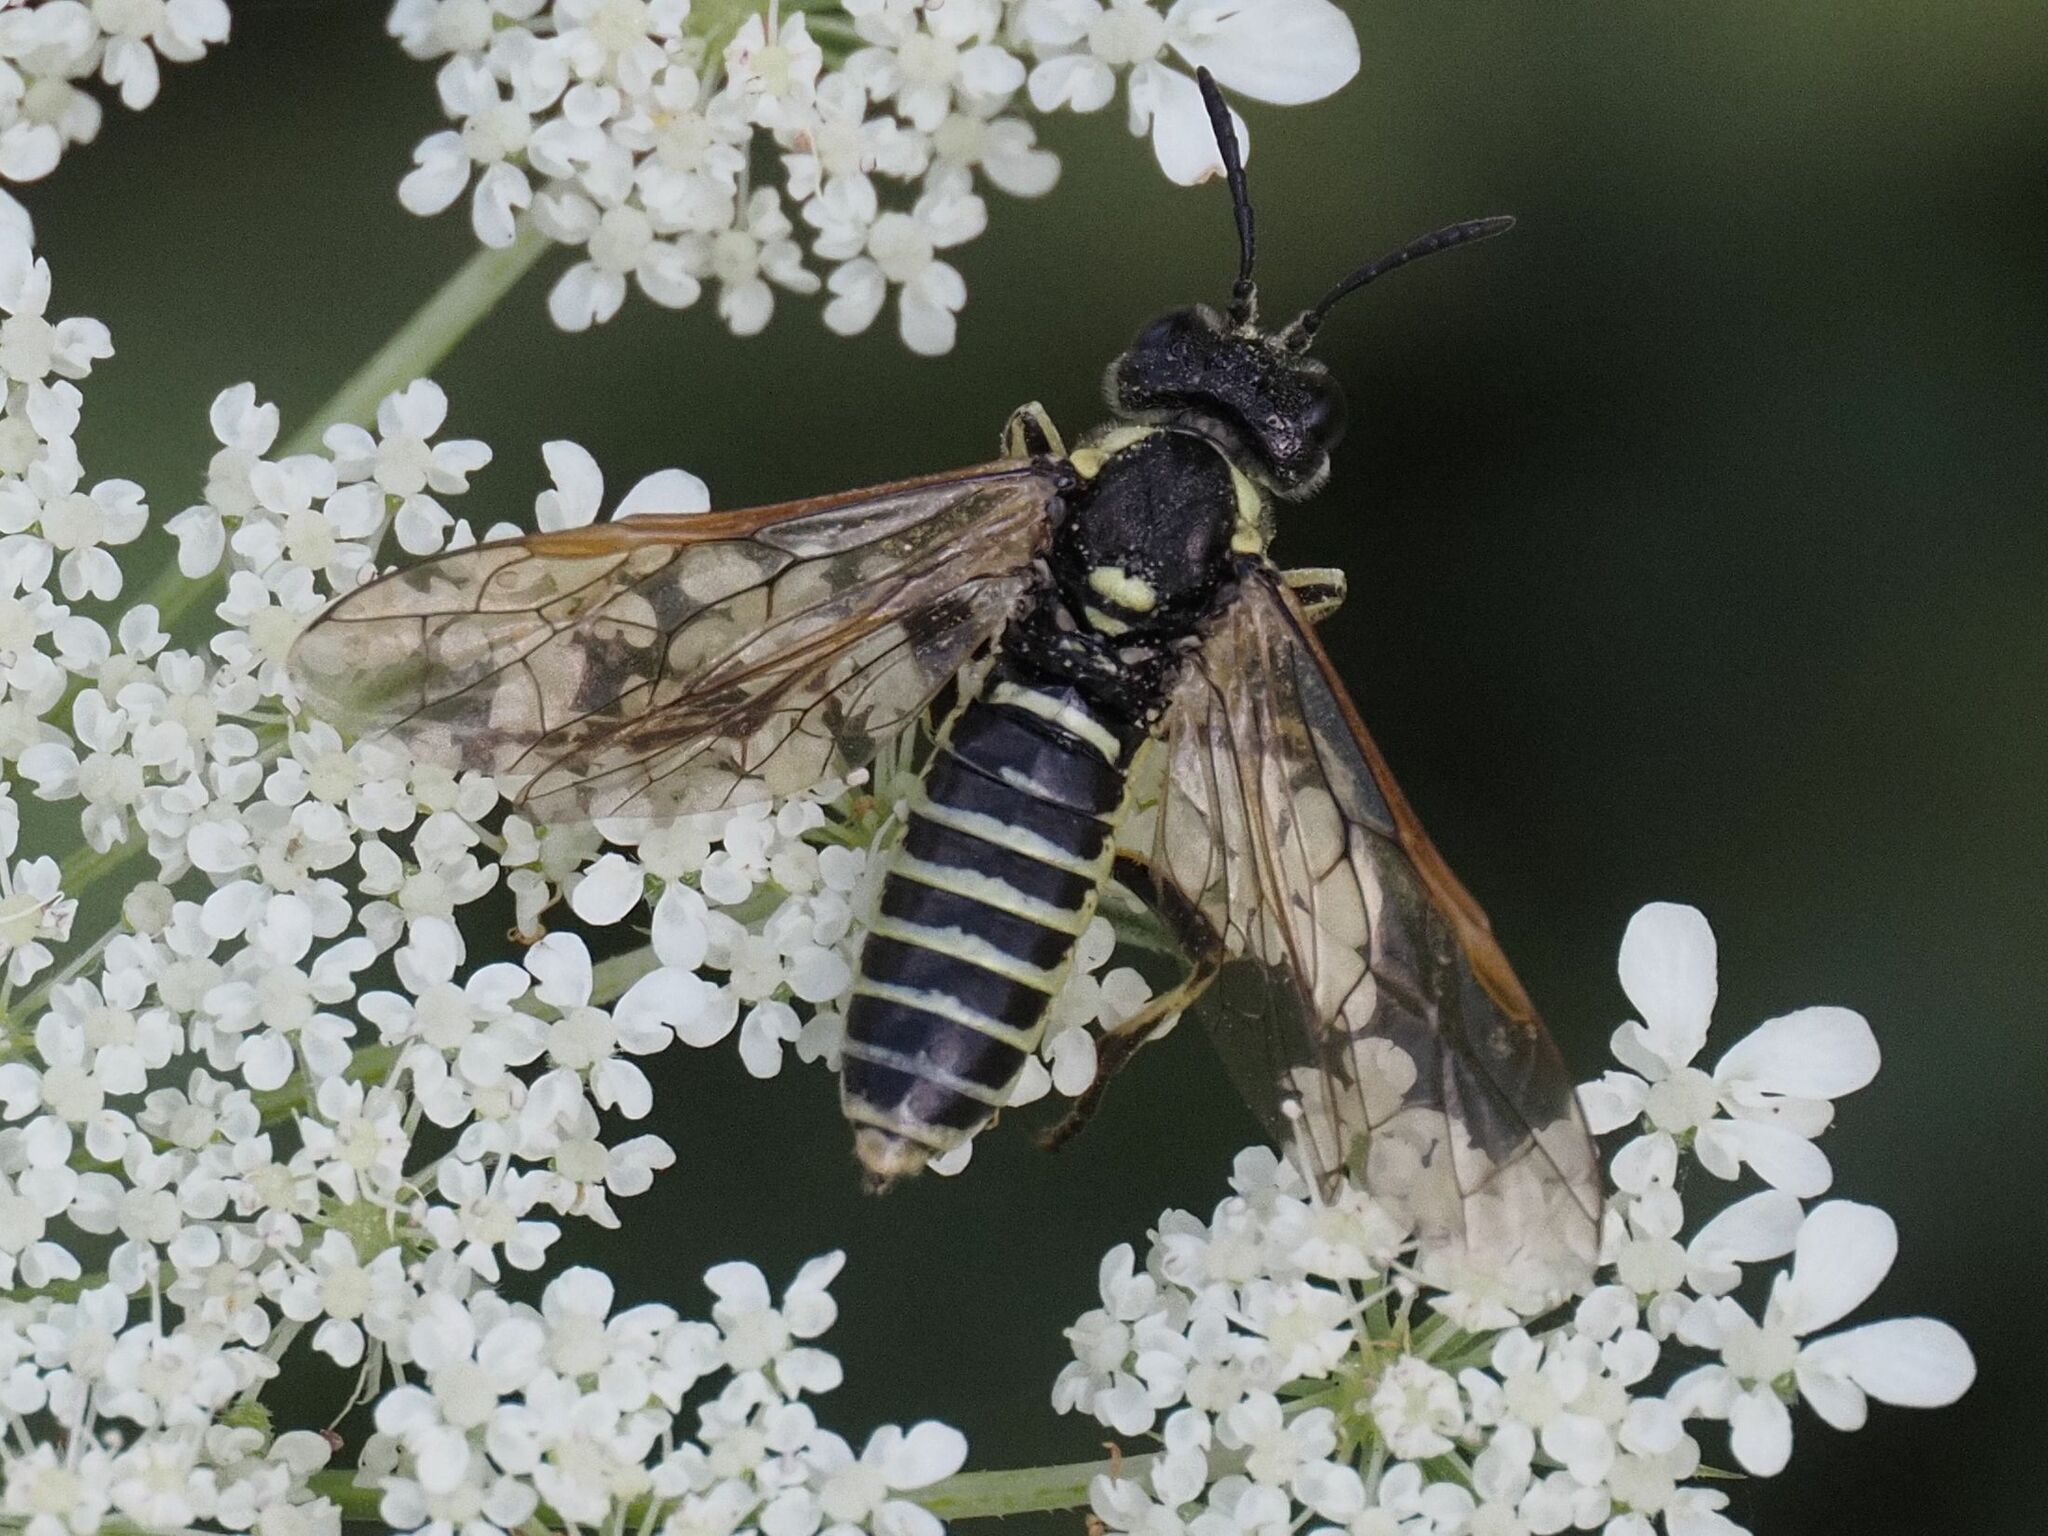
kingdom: Animalia
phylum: Arthropoda
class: Insecta
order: Hymenoptera
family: Tenthredinidae
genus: Tenthredo
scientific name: Tenthredo arcuata
